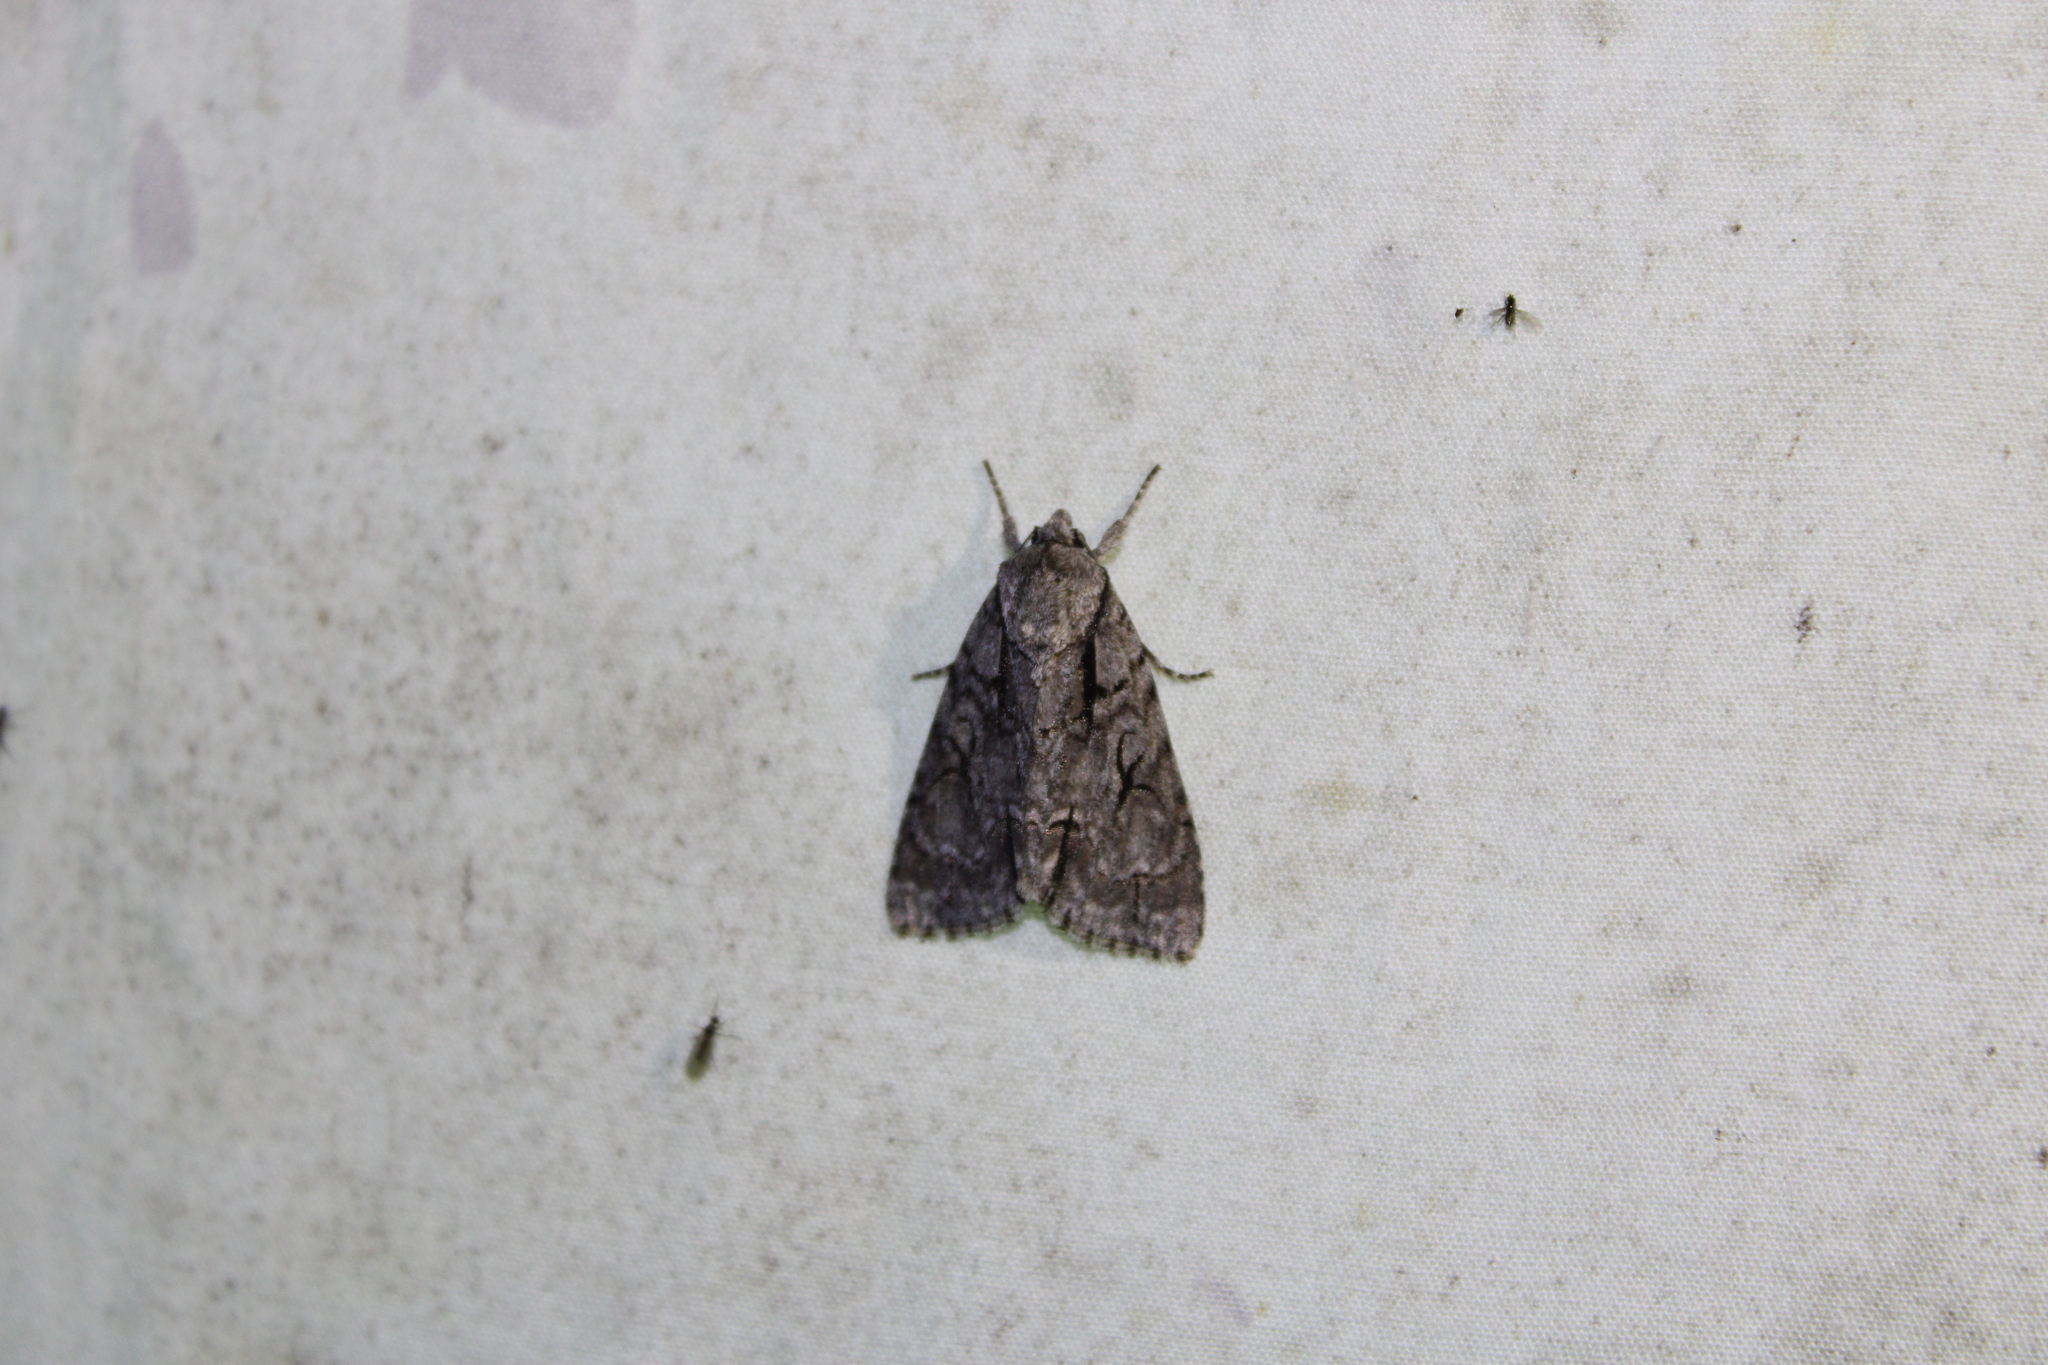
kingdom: Animalia
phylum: Arthropoda
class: Insecta
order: Lepidoptera
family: Noctuidae
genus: Acronicta
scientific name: Acronicta hasta
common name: Cherry dagger
